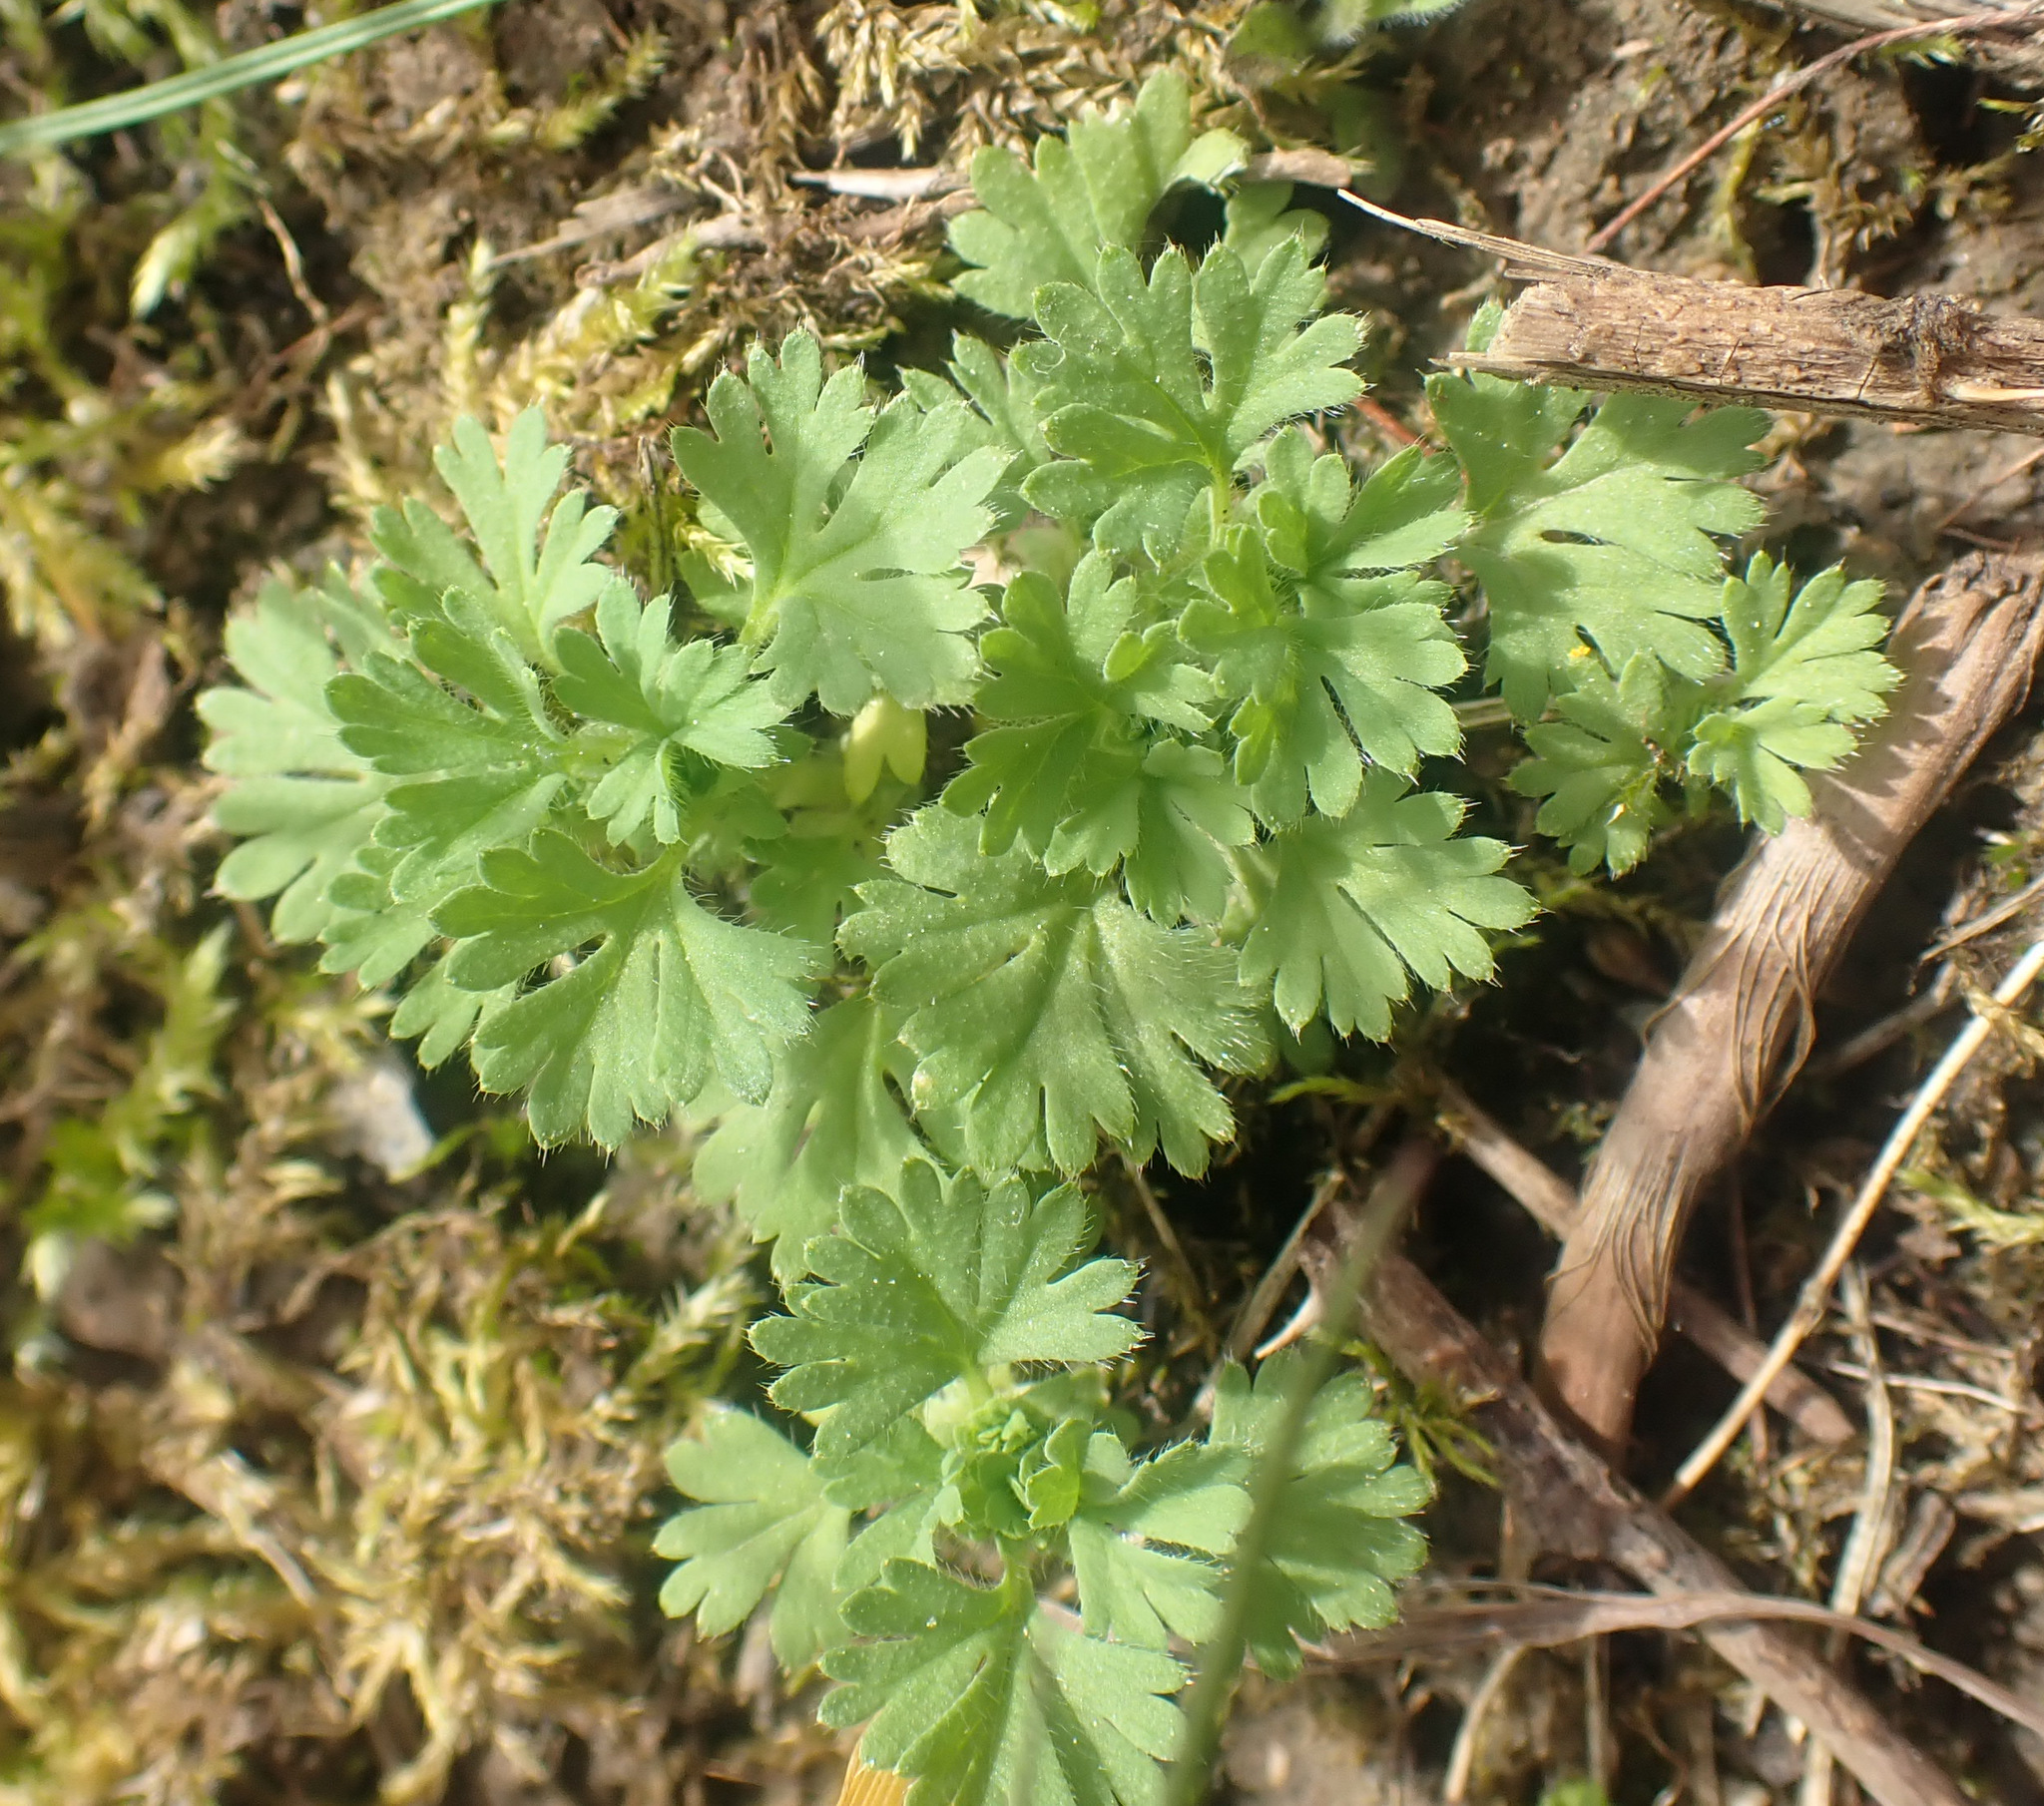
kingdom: Plantae
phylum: Tracheophyta
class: Magnoliopsida
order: Rosales
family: Rosaceae
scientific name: Rosaceae
